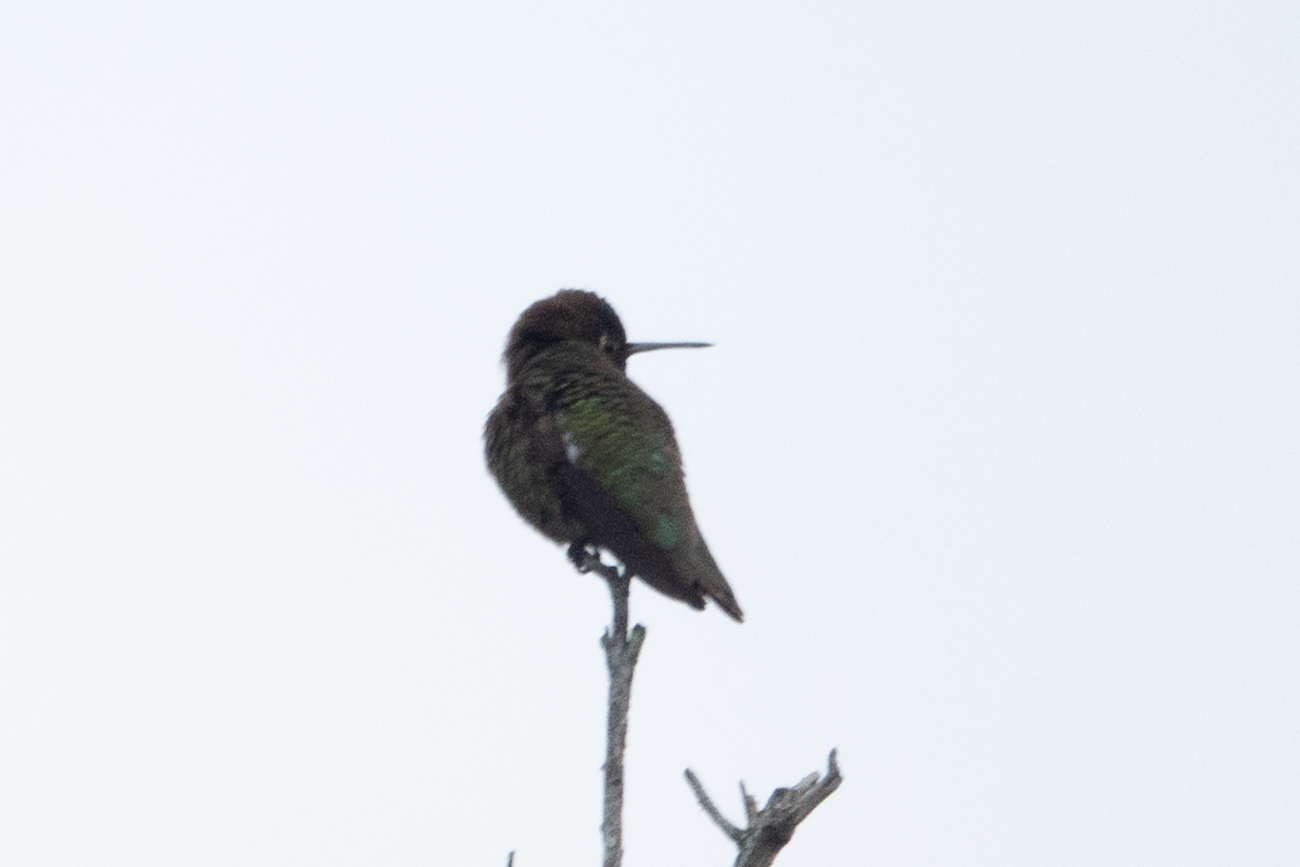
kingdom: Animalia
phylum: Chordata
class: Aves
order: Apodiformes
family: Trochilidae
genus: Calypte
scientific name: Calypte anna
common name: Anna's hummingbird
